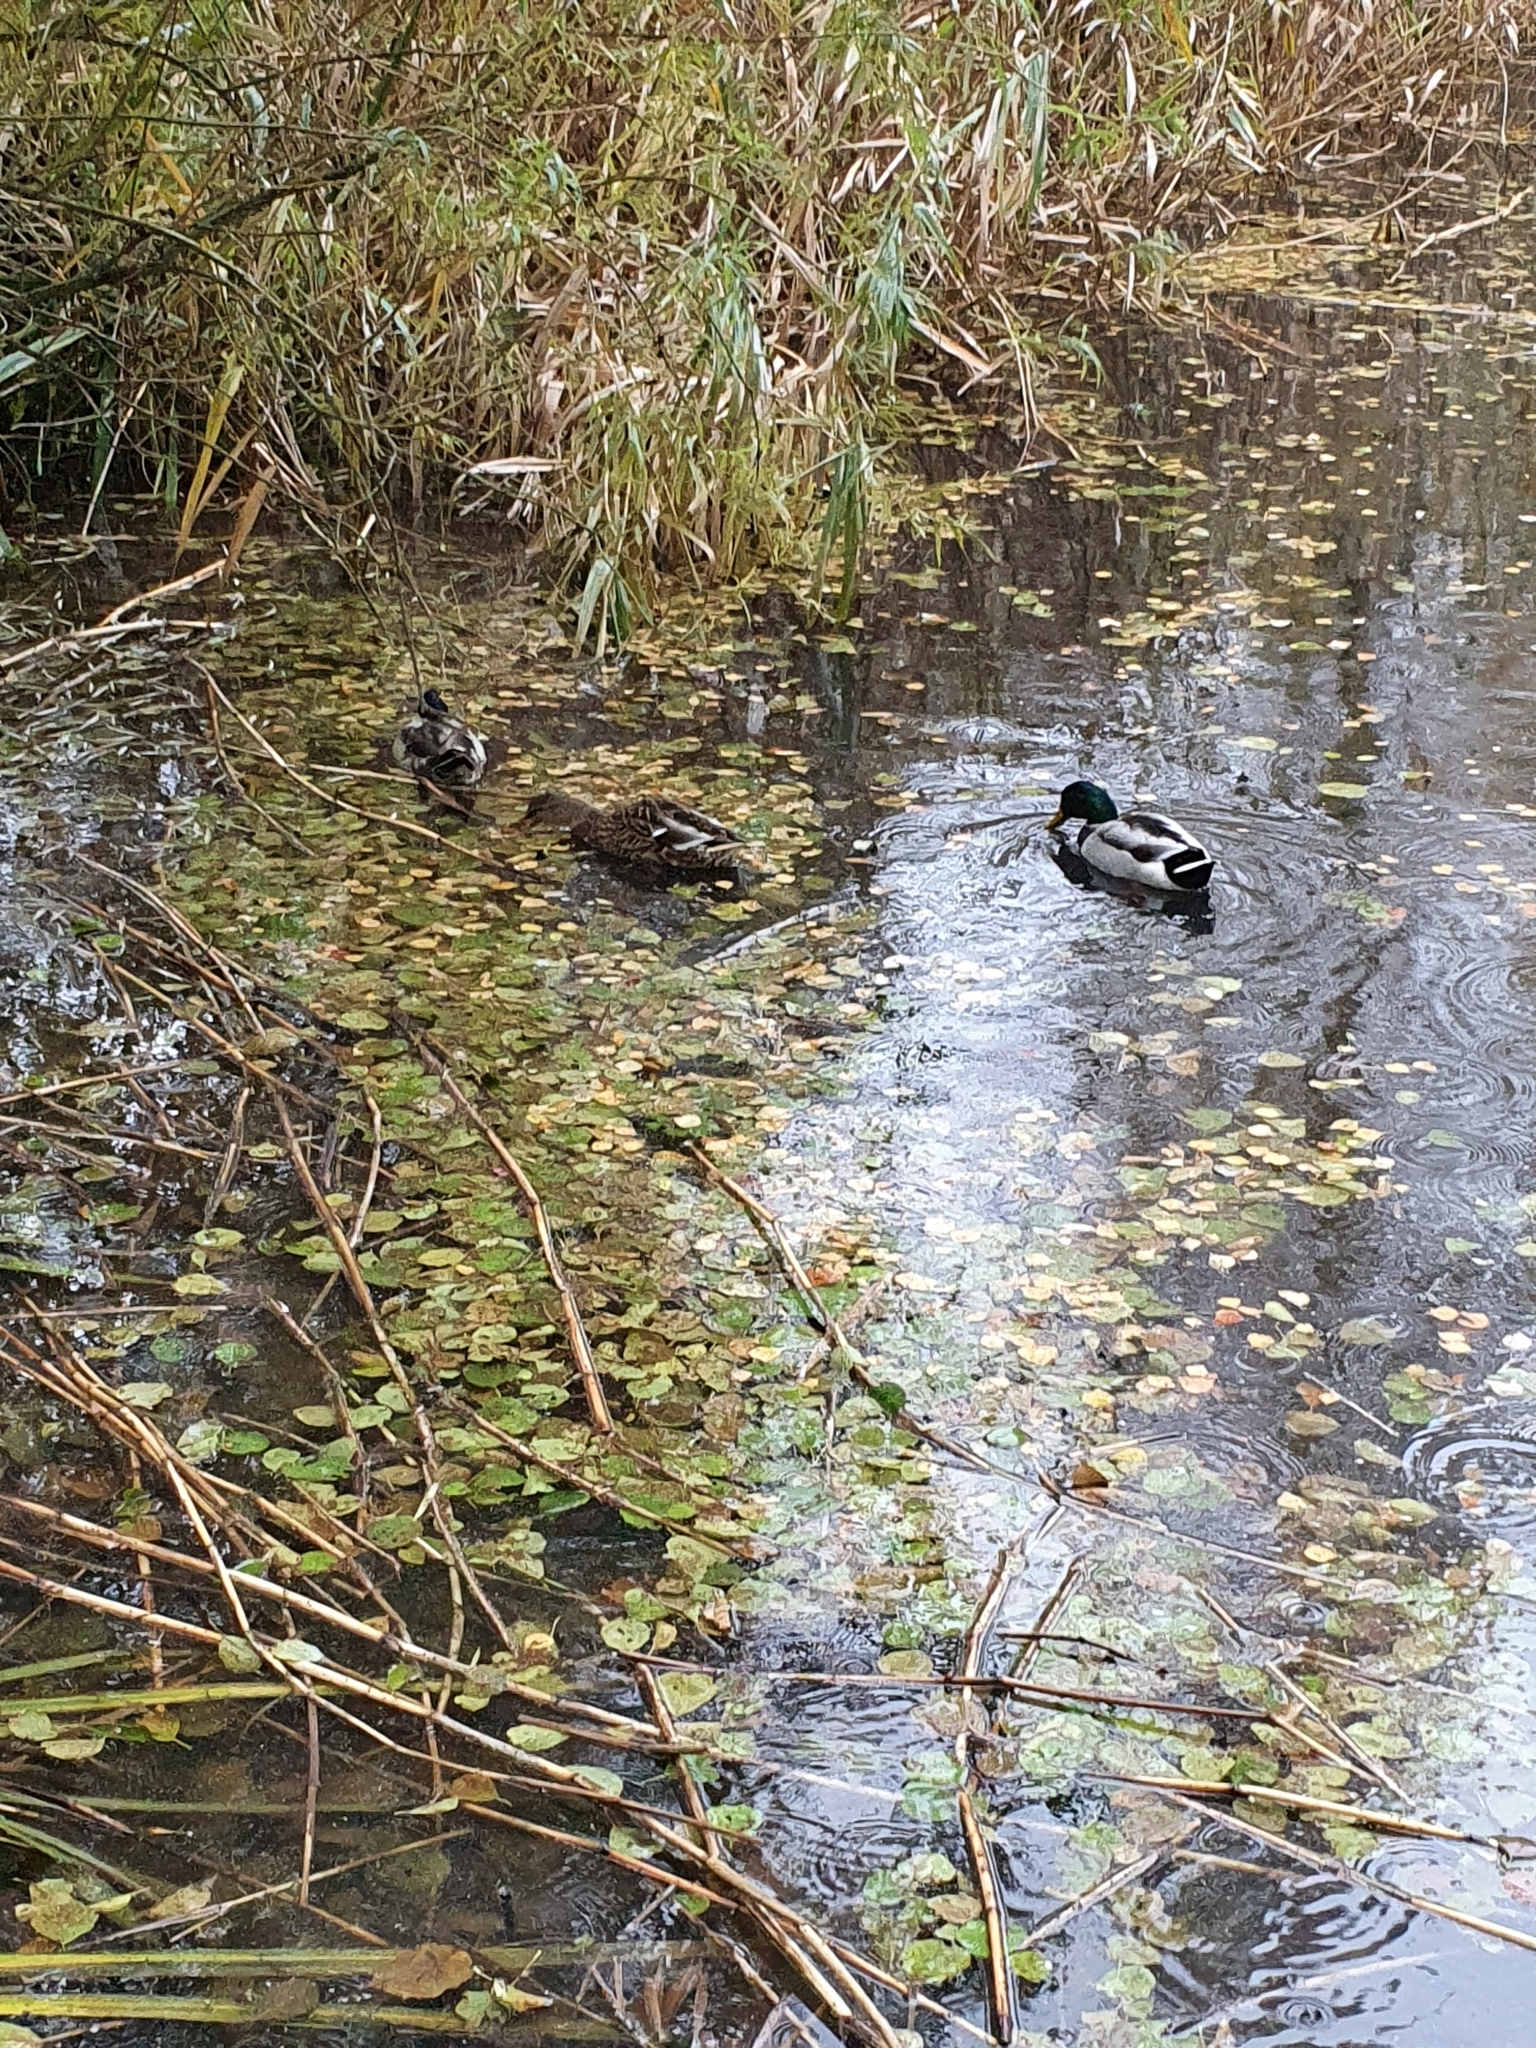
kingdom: Animalia
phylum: Chordata
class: Aves
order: Anseriformes
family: Anatidae
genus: Anas
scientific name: Anas platyrhynchos
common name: Mallard
